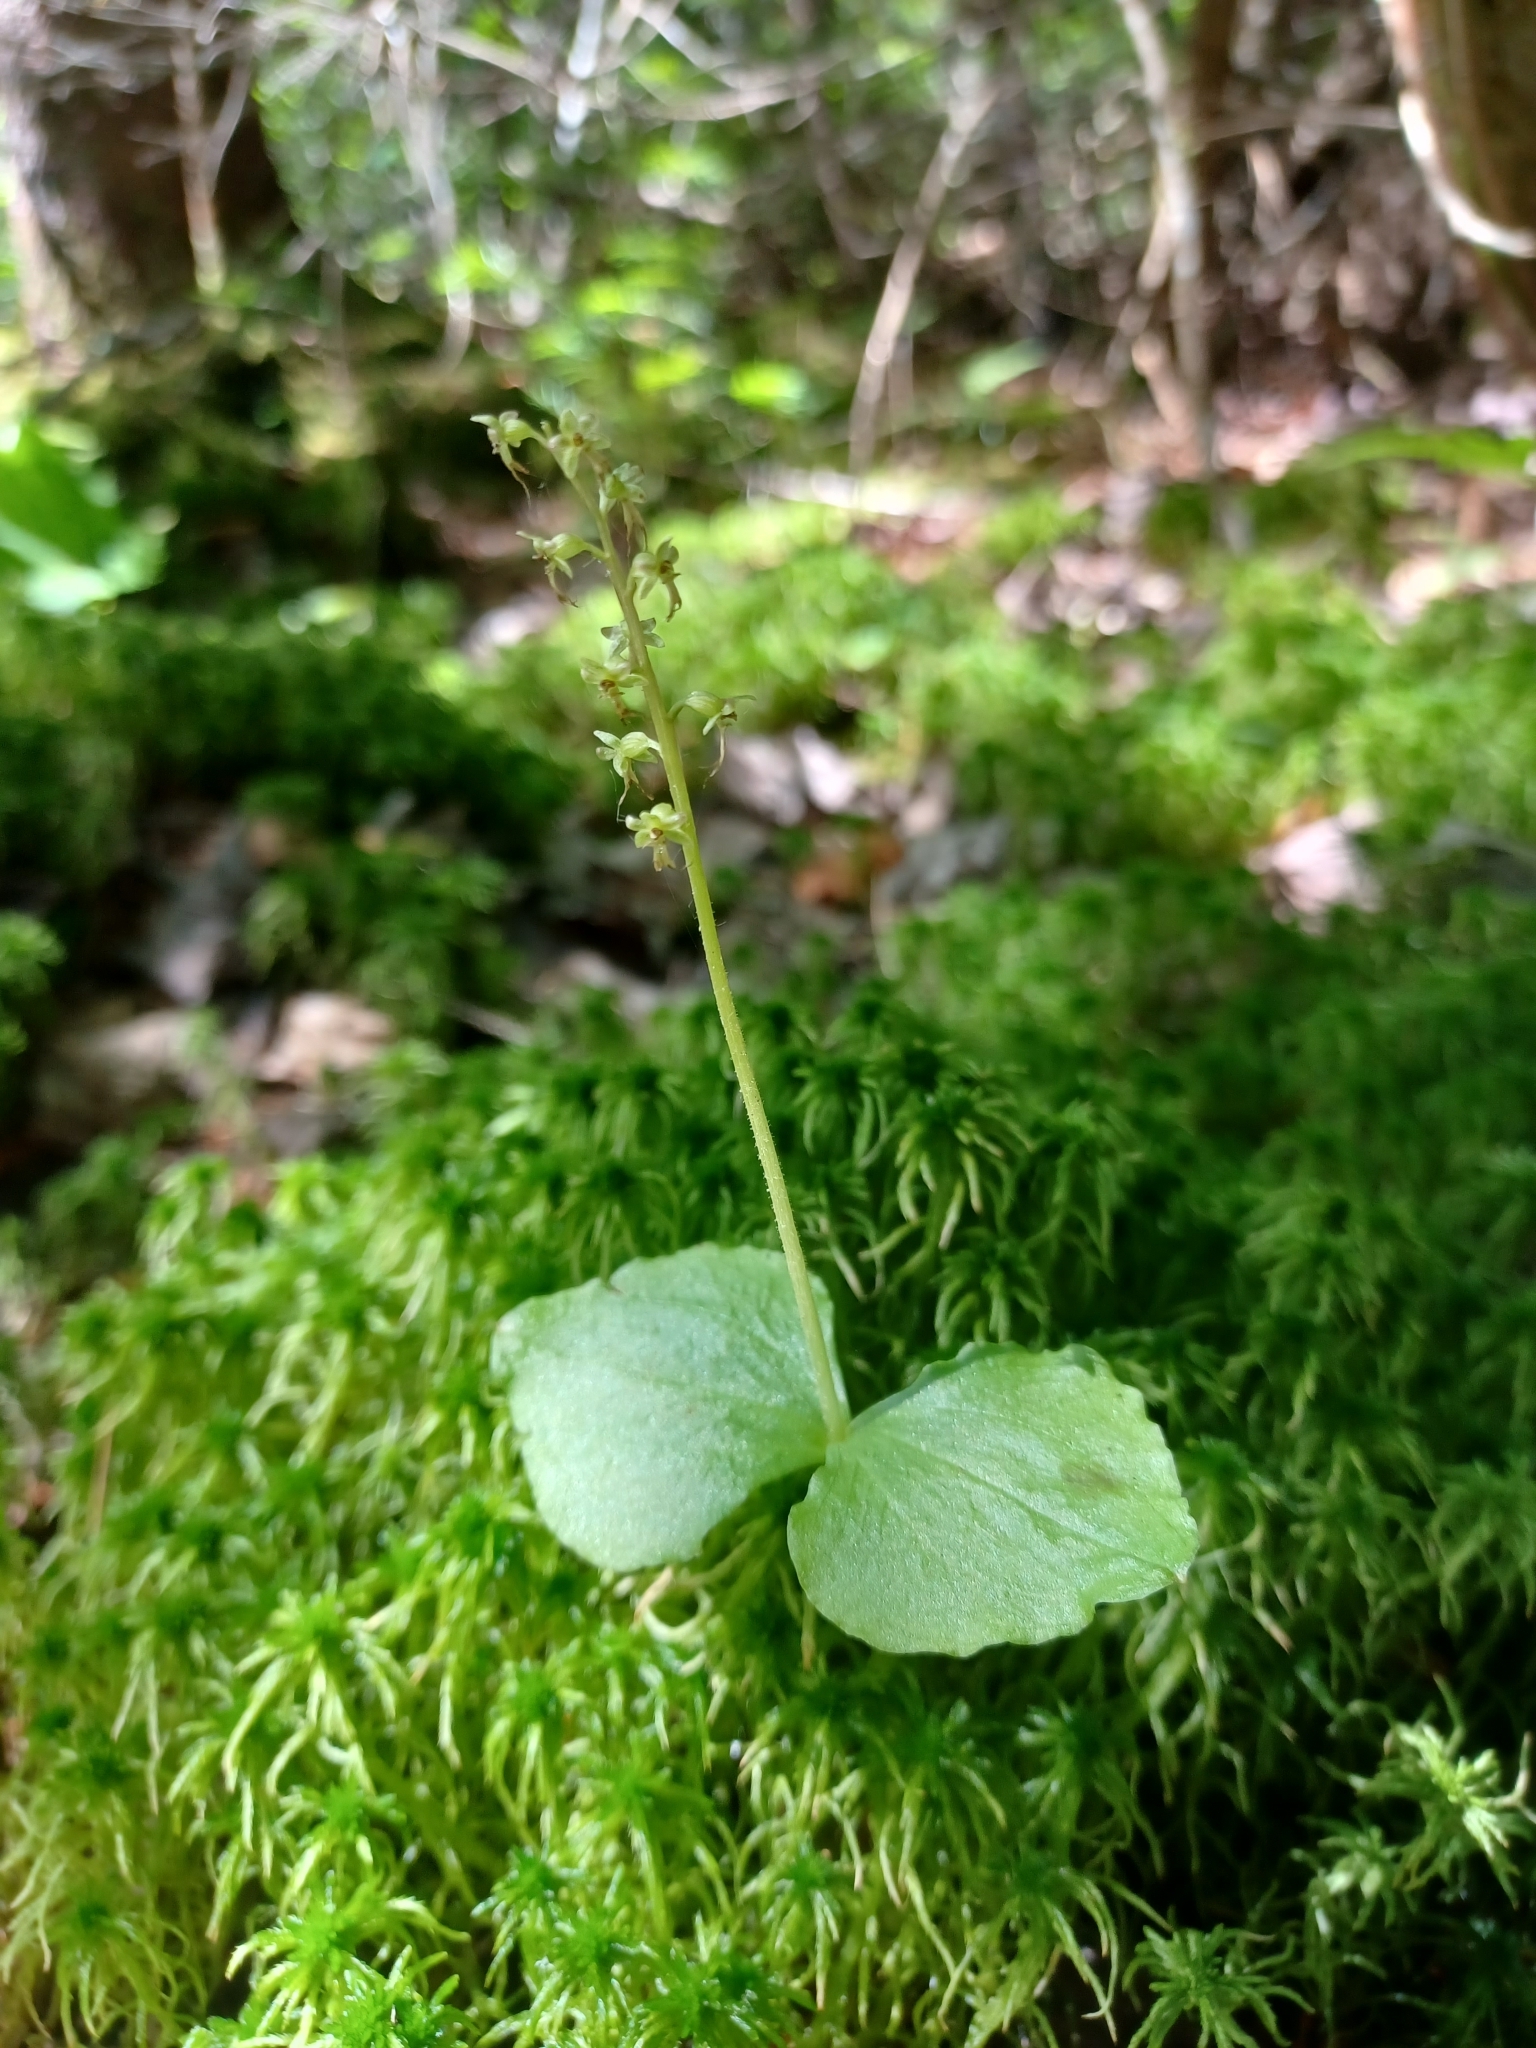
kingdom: Plantae
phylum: Tracheophyta
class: Liliopsida
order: Asparagales
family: Orchidaceae
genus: Neottia
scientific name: Neottia cordata
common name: Lesser twayblade
